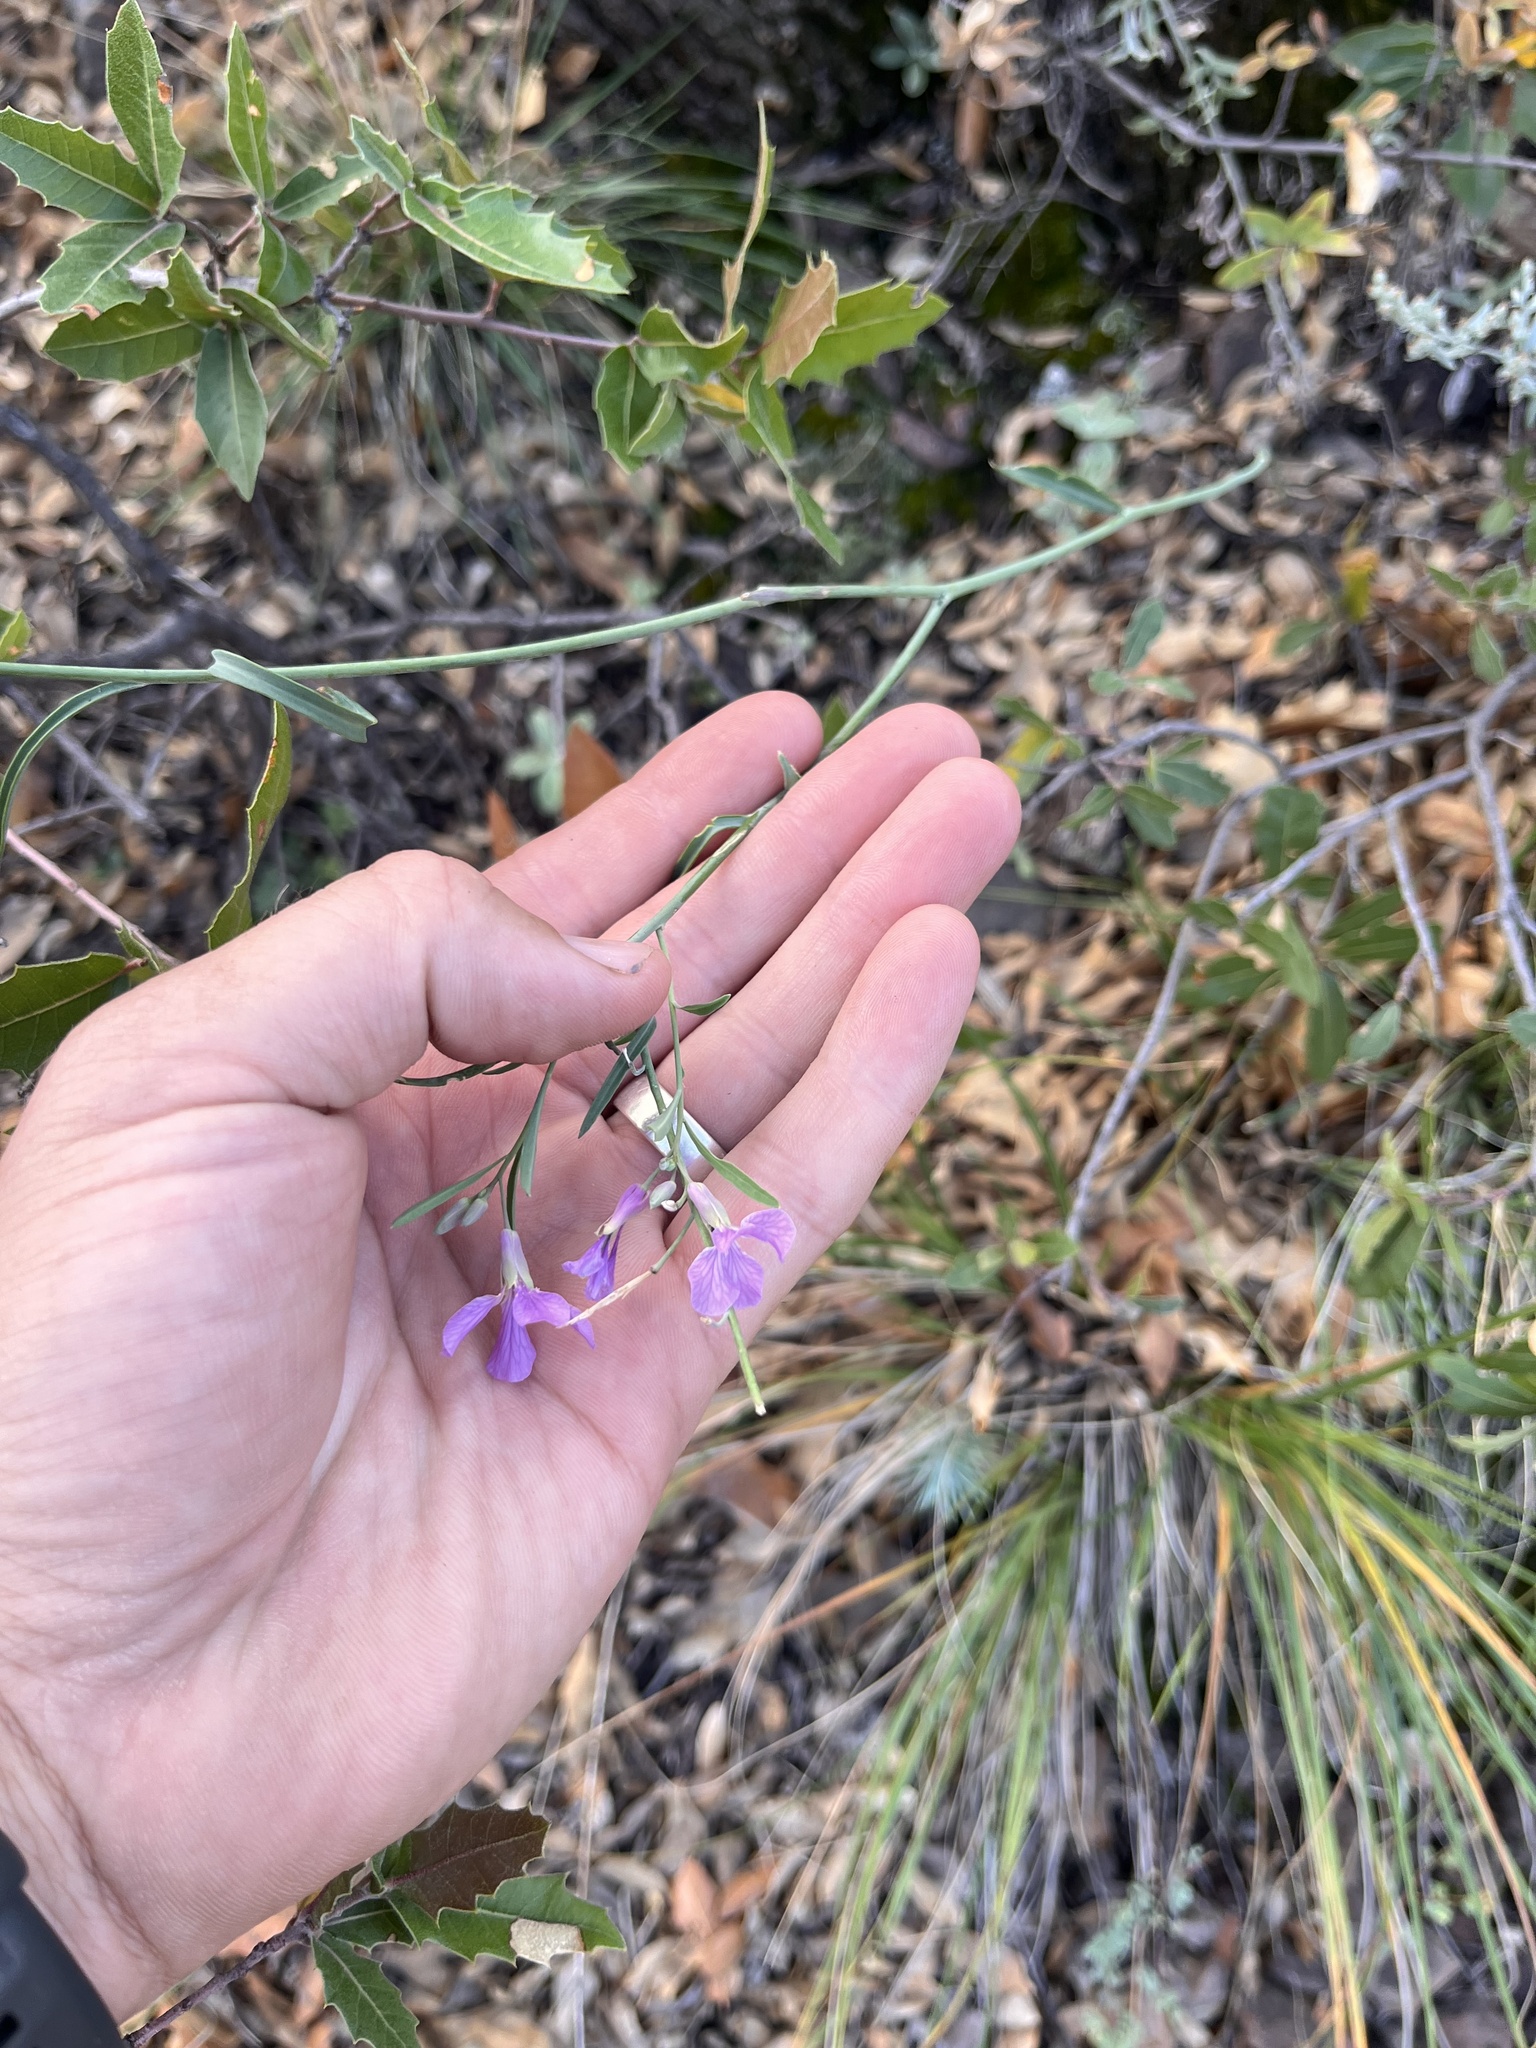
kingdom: Plantae
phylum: Tracheophyta
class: Magnoliopsida
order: Brassicales
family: Brassicaceae
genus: Hesperidanthus
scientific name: Hesperidanthus linearifolius
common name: Slim-leaf plains mustard
